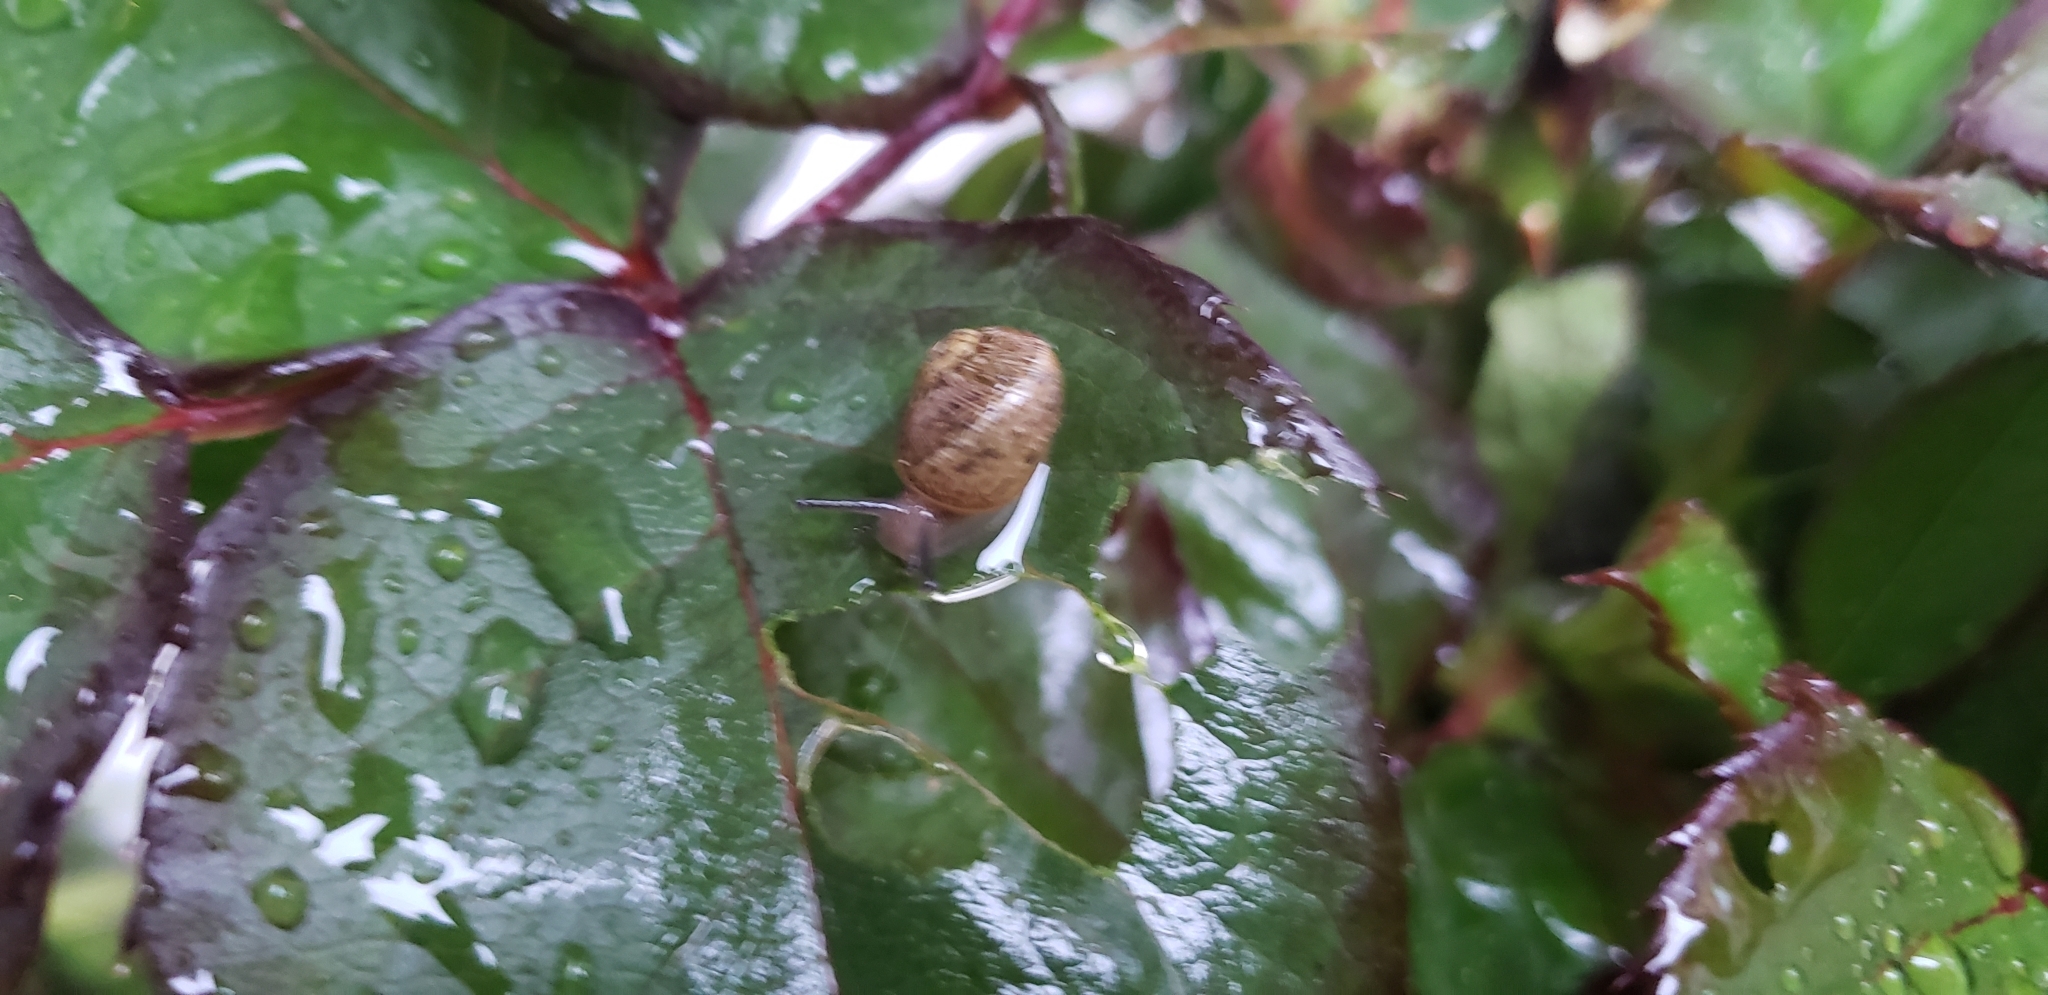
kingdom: Animalia
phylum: Mollusca
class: Gastropoda
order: Stylommatophora
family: Helicidae
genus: Cornu
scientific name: Cornu aspersum
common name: Brown garden snail
